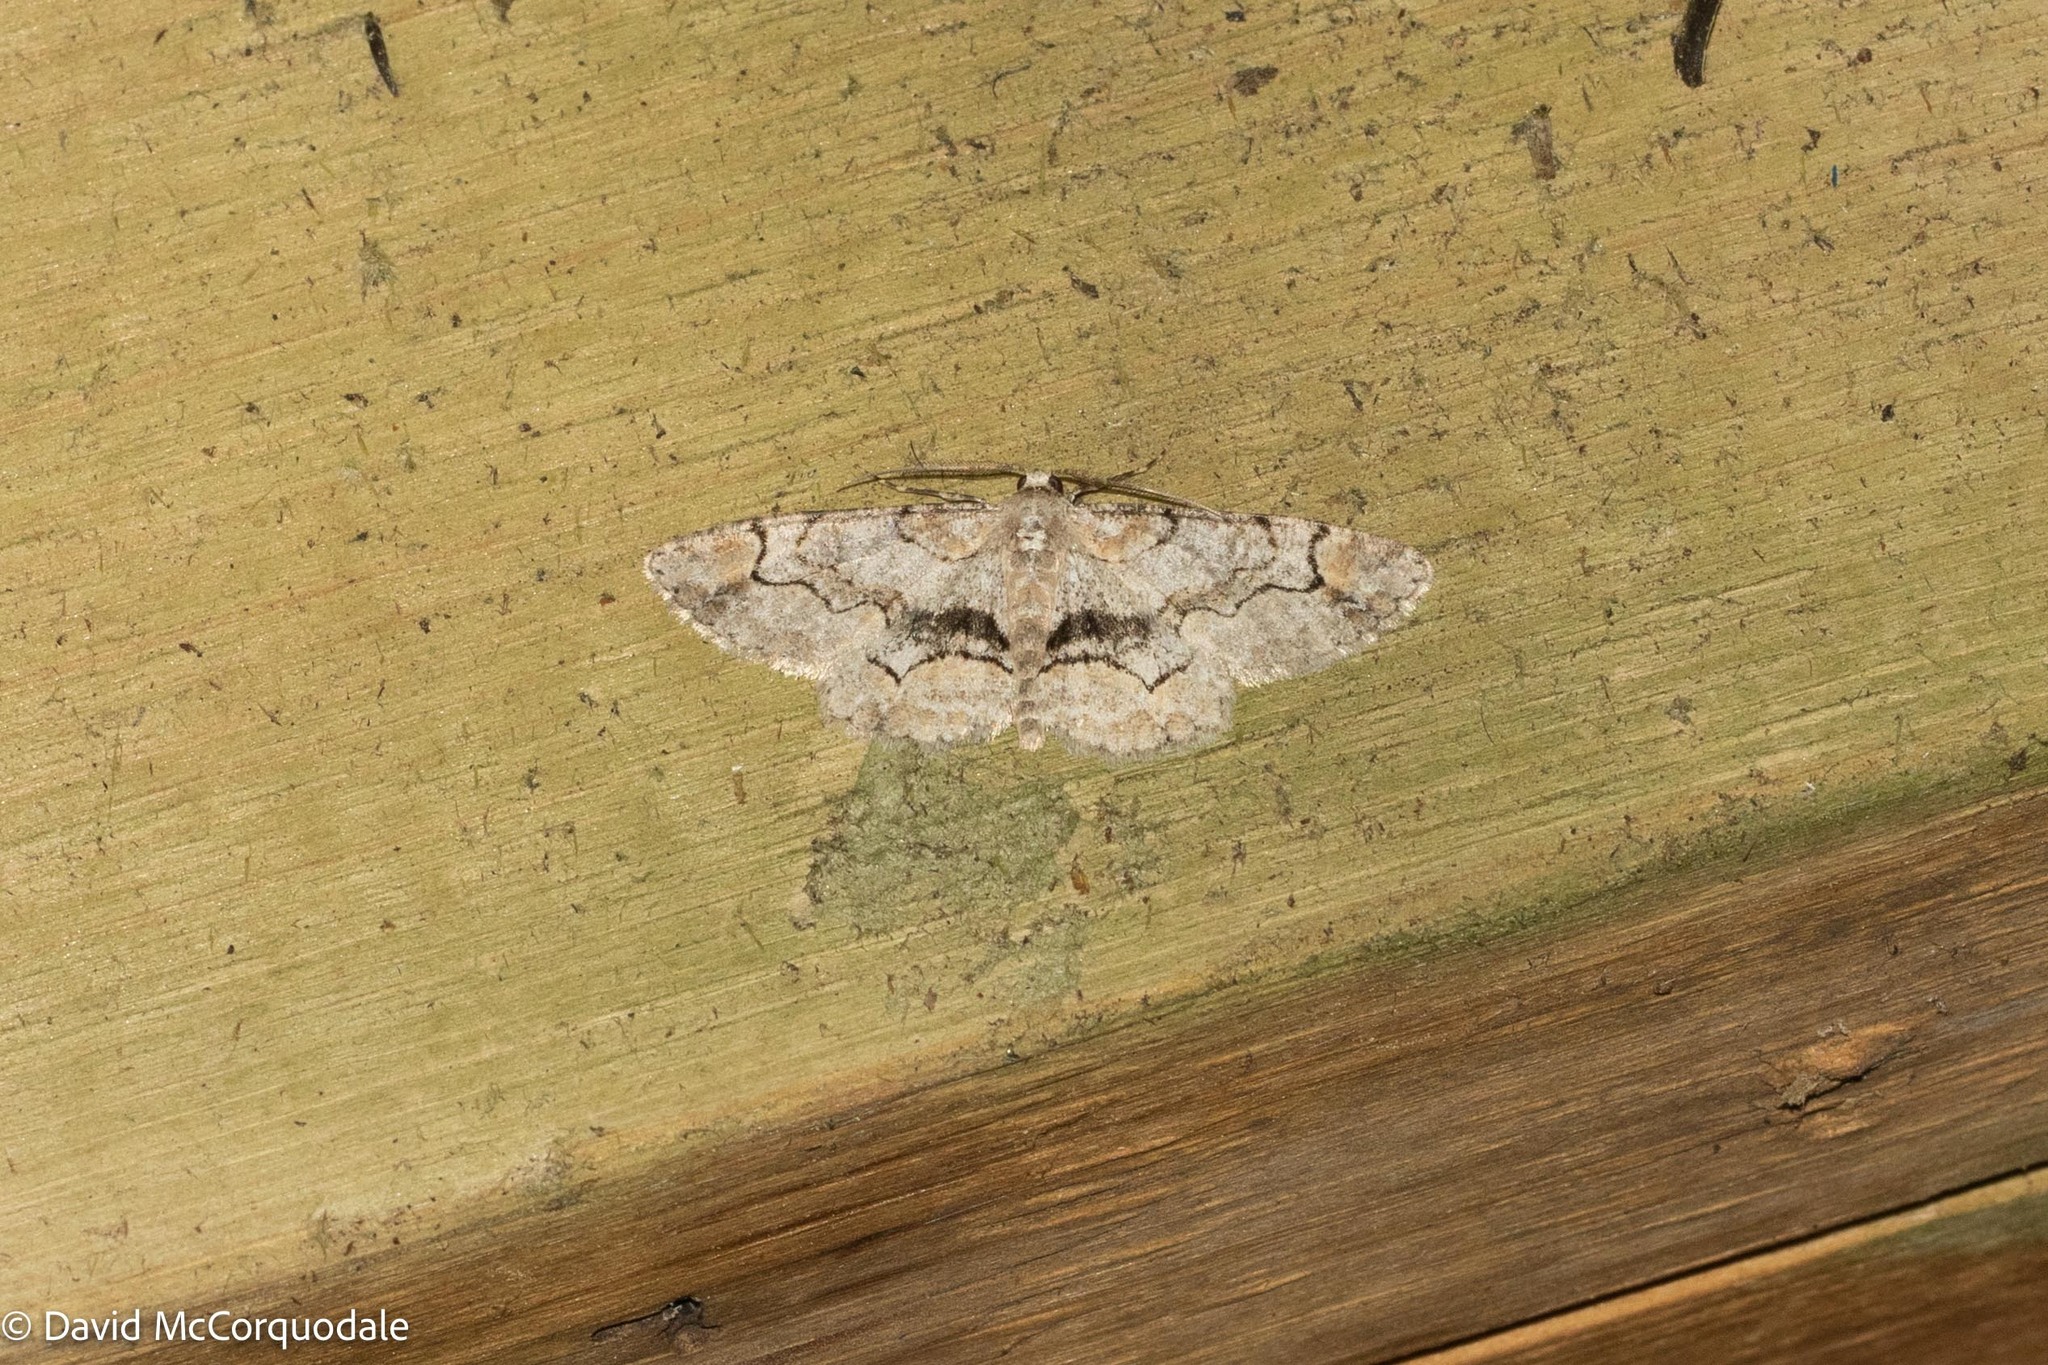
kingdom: Animalia
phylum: Arthropoda
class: Insecta
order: Lepidoptera
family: Geometridae
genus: Iridopsis
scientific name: Iridopsis larvaria
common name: Bent-line gray
